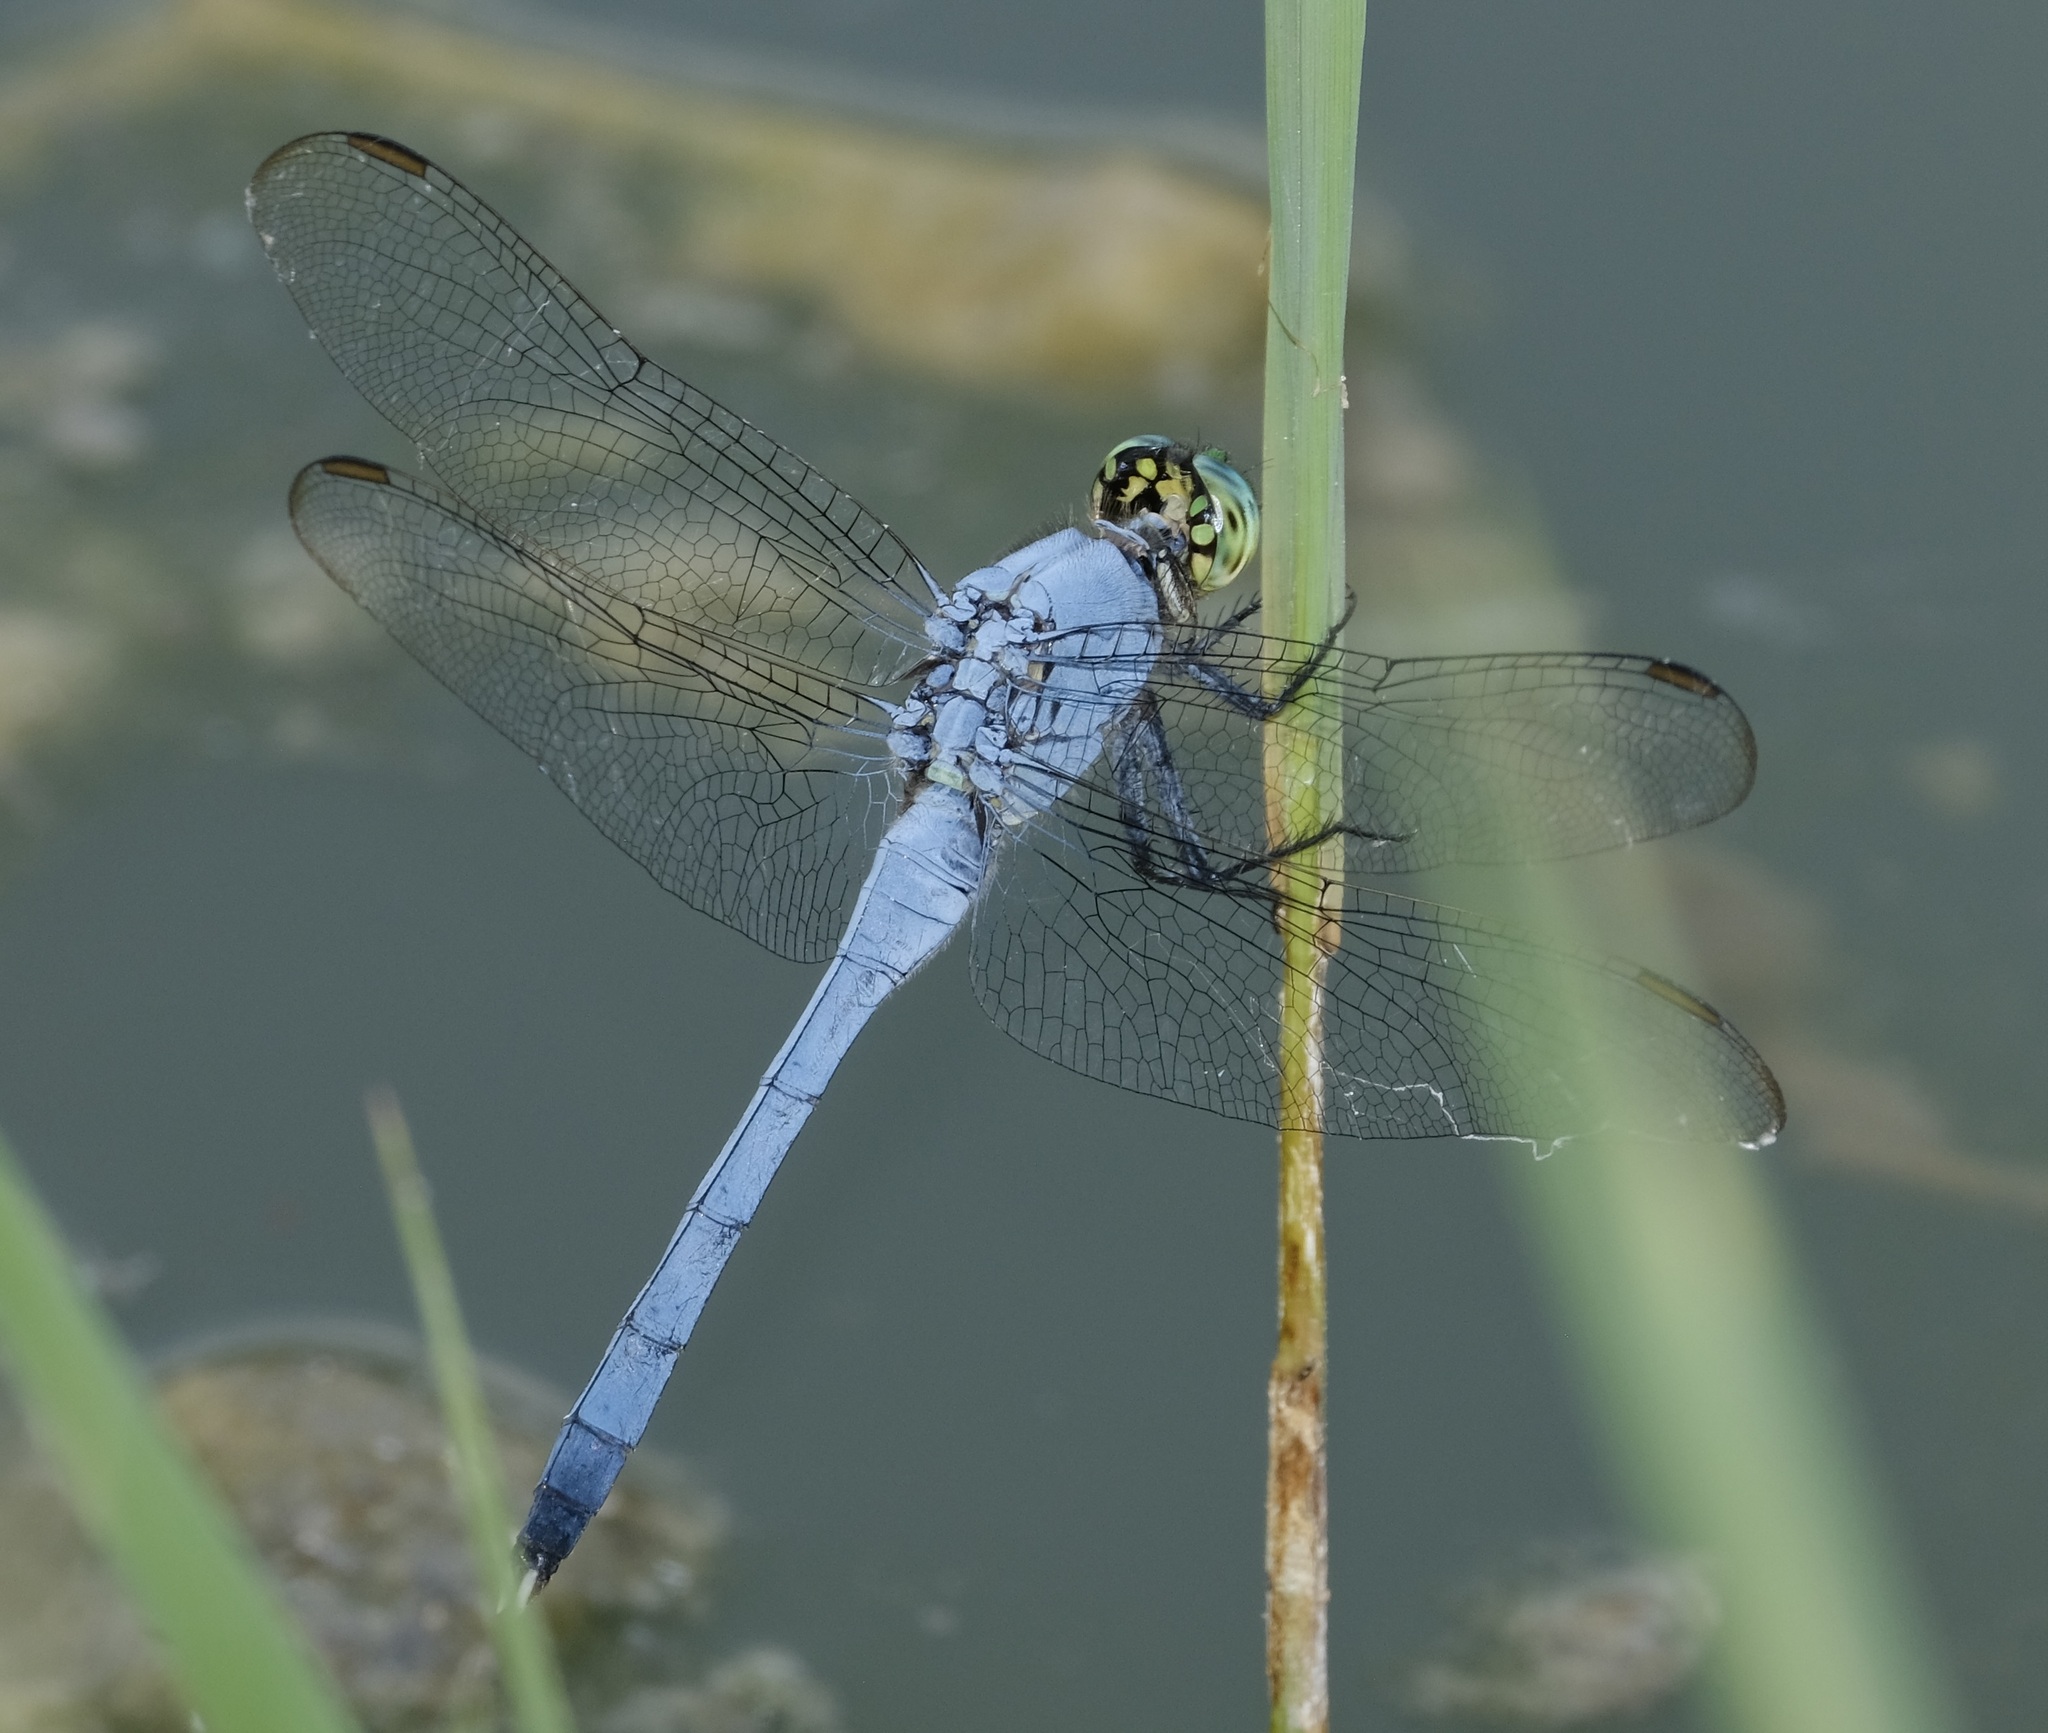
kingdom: Animalia
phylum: Arthropoda
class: Insecta
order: Odonata
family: Libellulidae
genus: Erythemis
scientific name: Erythemis simplicicollis
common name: Eastern pondhawk
